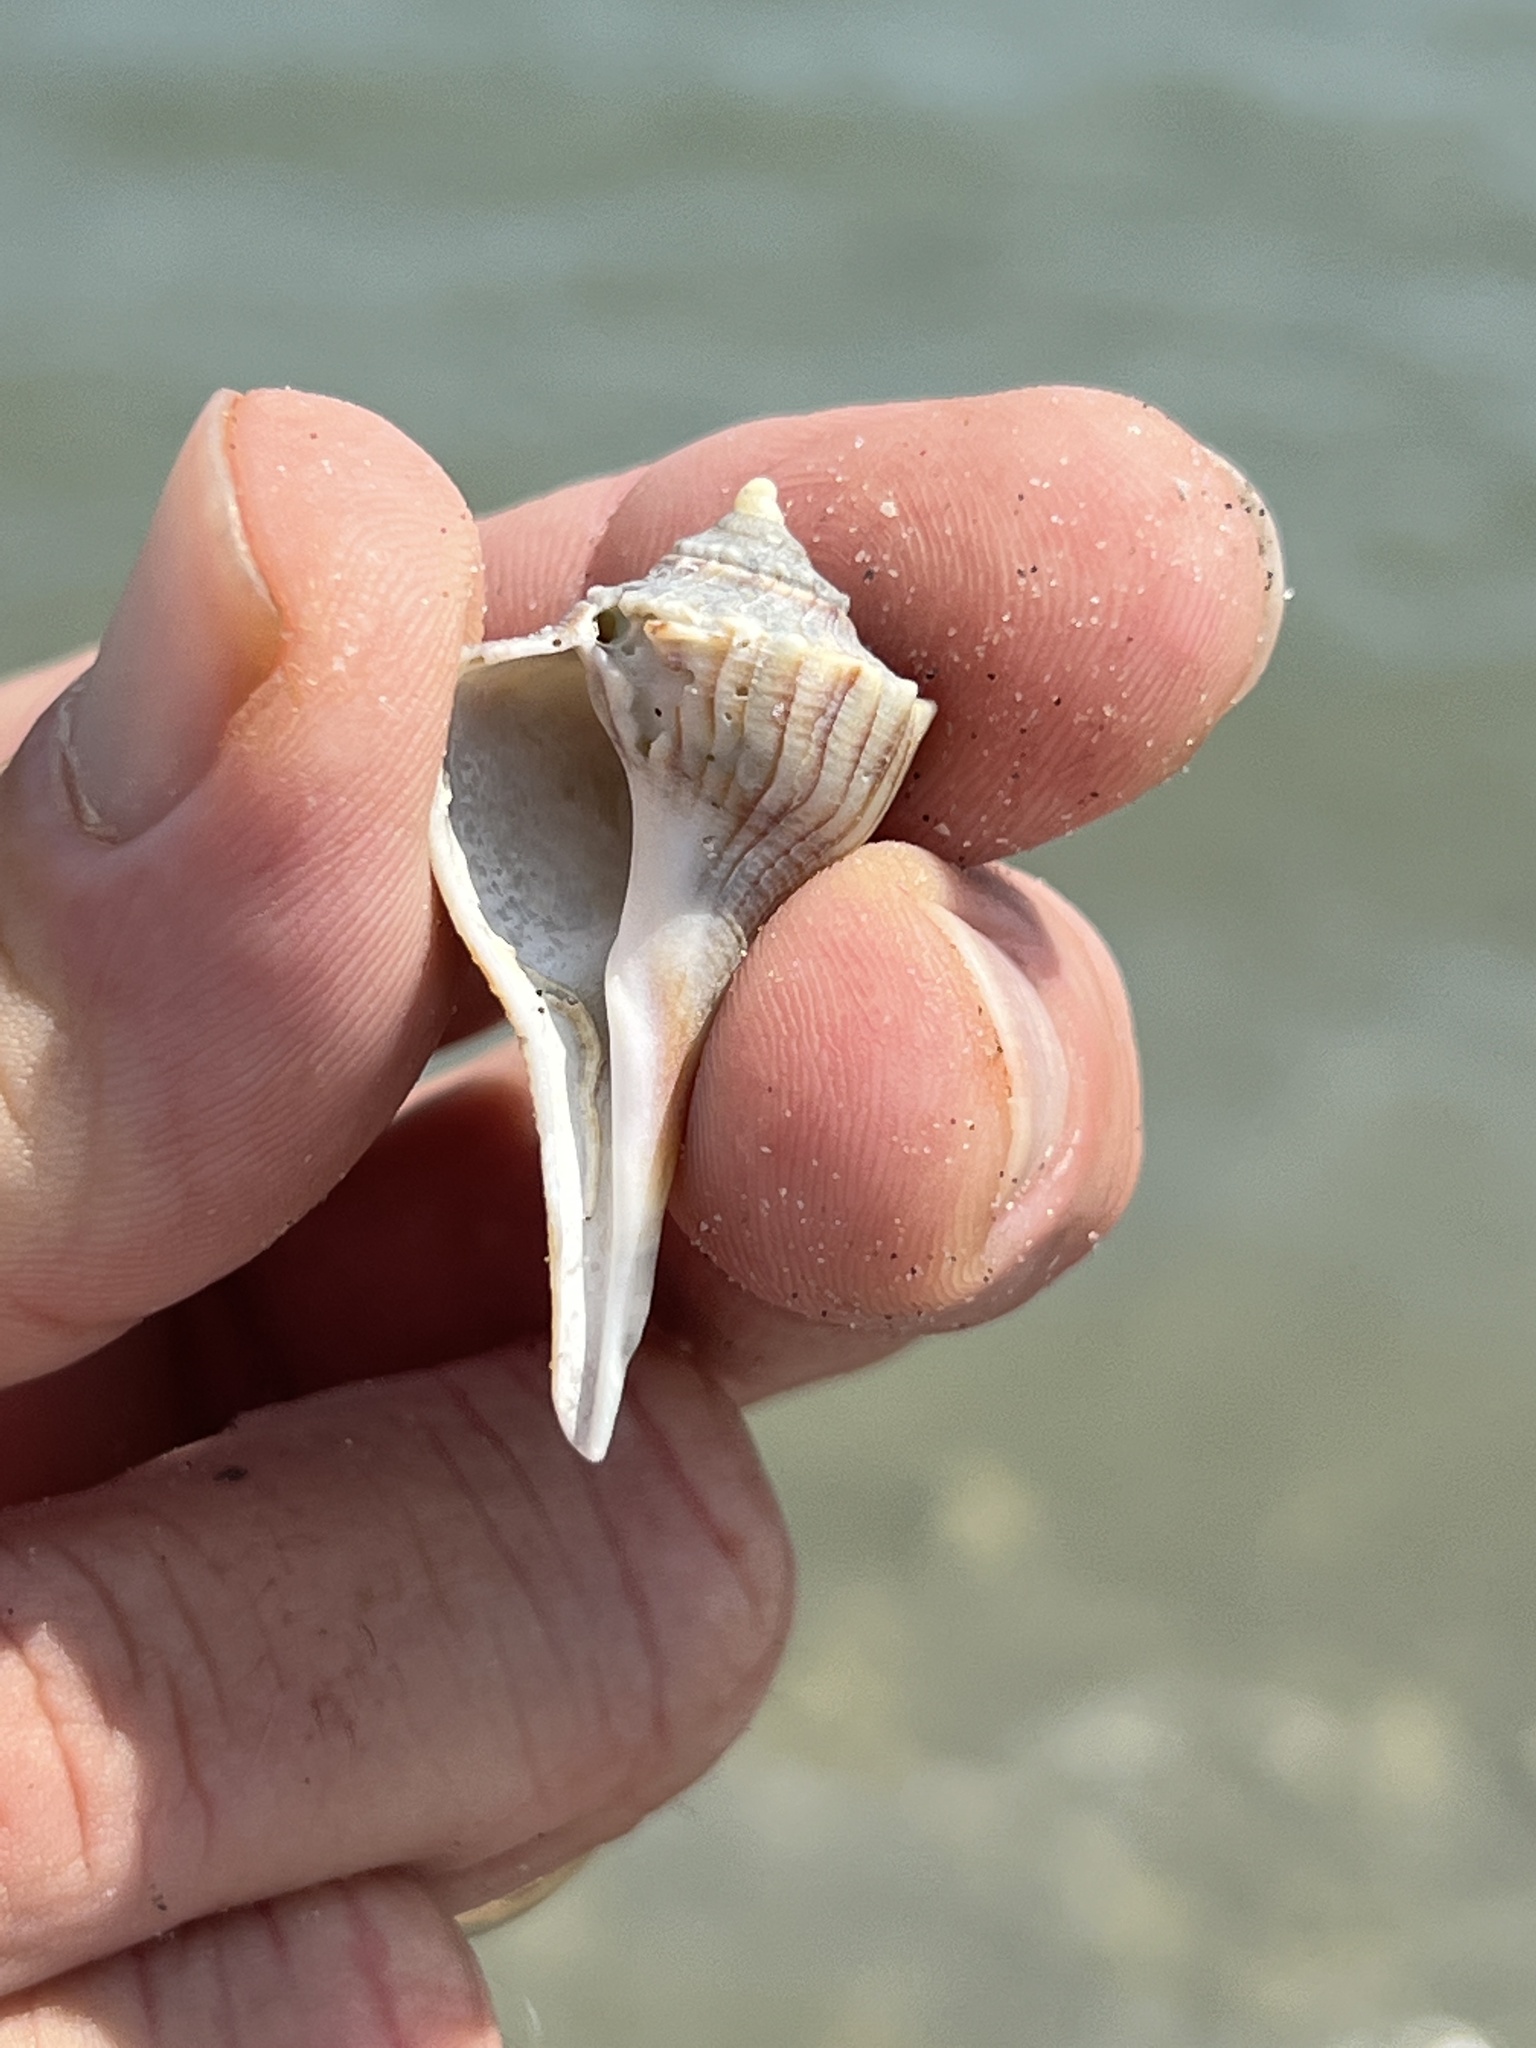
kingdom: Animalia
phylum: Mollusca
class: Gastropoda
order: Neogastropoda
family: Busyconidae
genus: Sinistrofulgur
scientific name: Sinistrofulgur pulleyi
